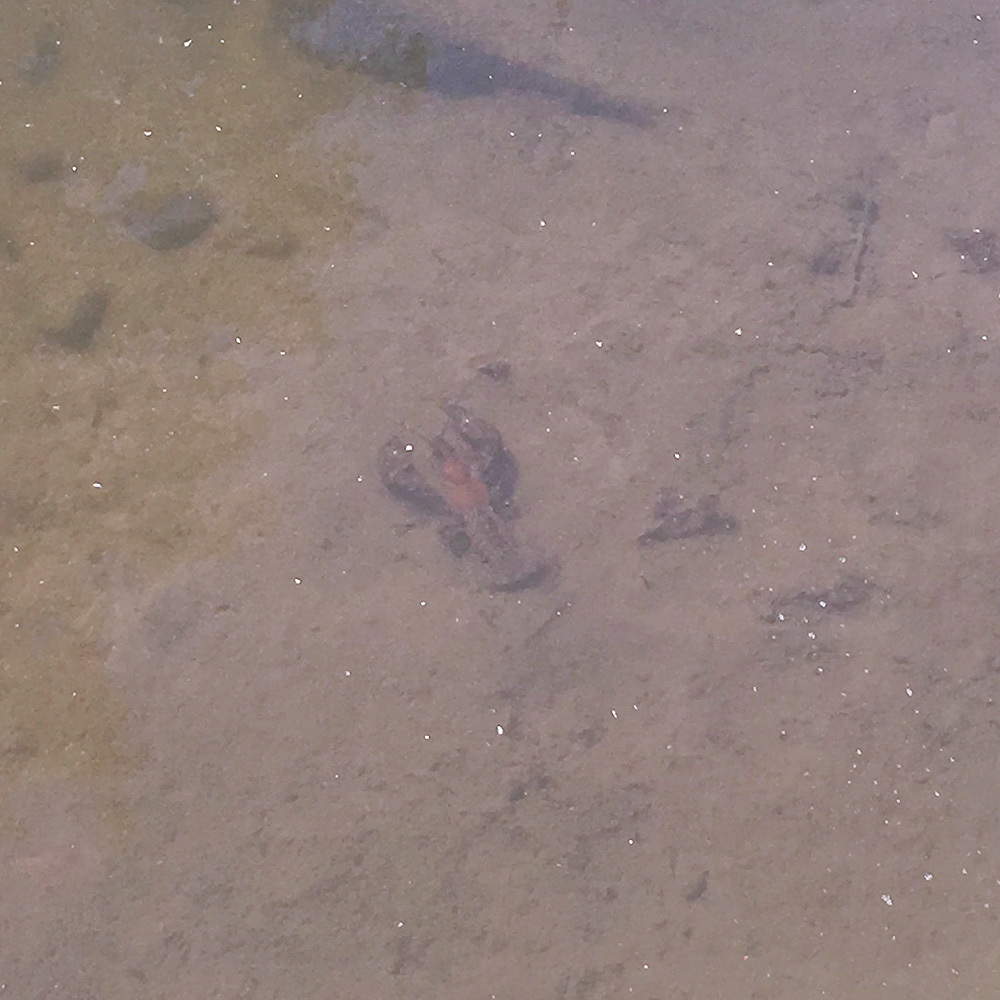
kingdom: Animalia
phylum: Arthropoda
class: Malacostraca
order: Decapoda
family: Astacidae
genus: Pacifastacus
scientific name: Pacifastacus leniusculus
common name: Signal crayfish
